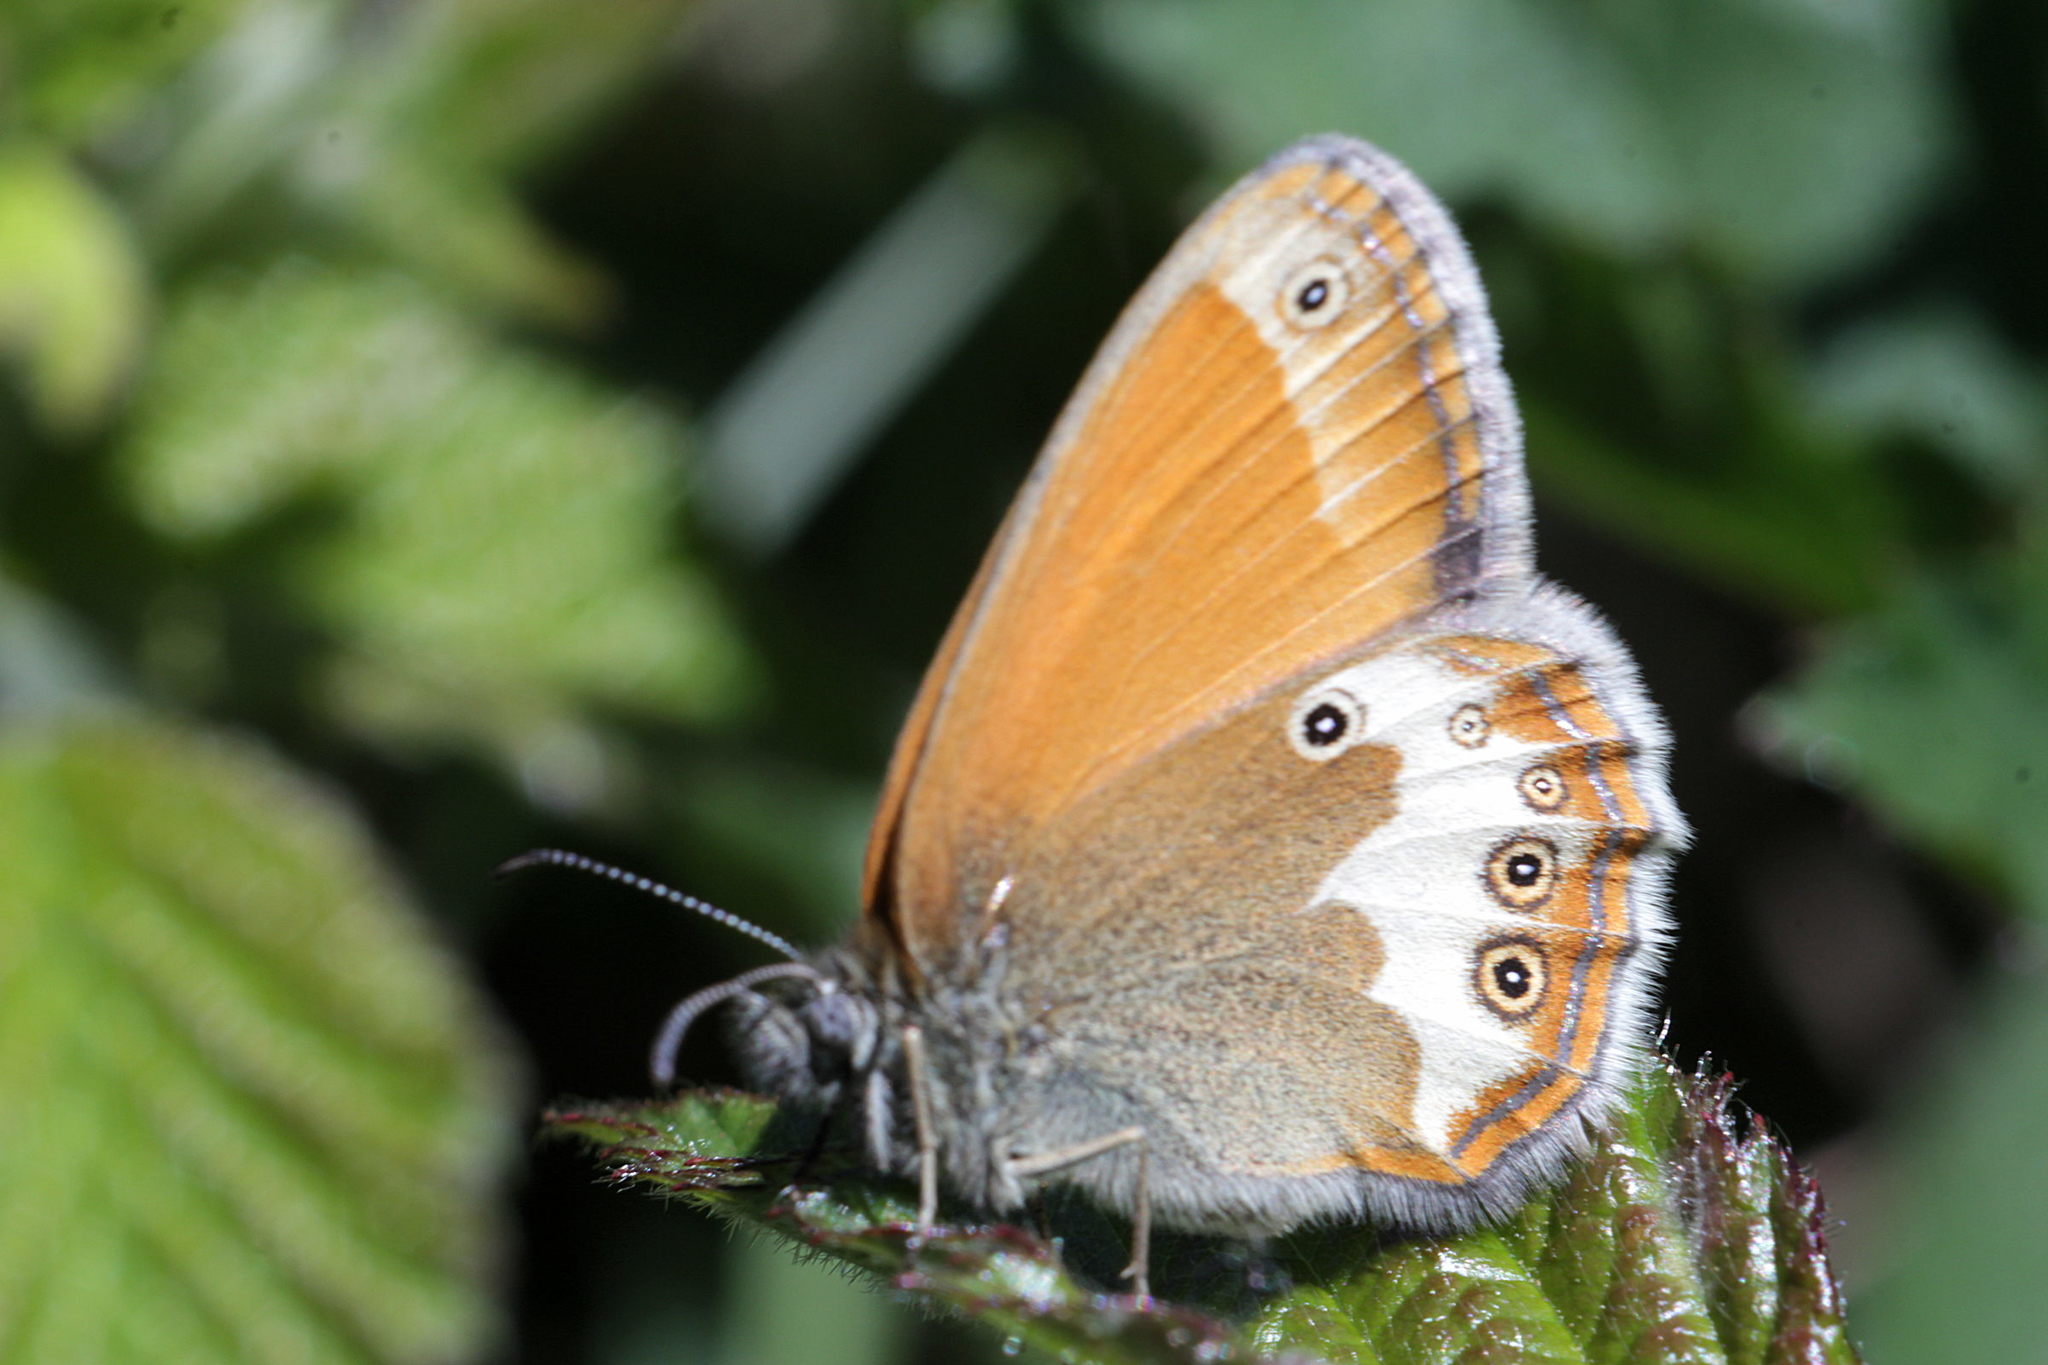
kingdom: Animalia
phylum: Arthropoda
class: Insecta
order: Lepidoptera
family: Nymphalidae
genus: Coenonympha
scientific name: Coenonympha arcania
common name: Pearly heath
